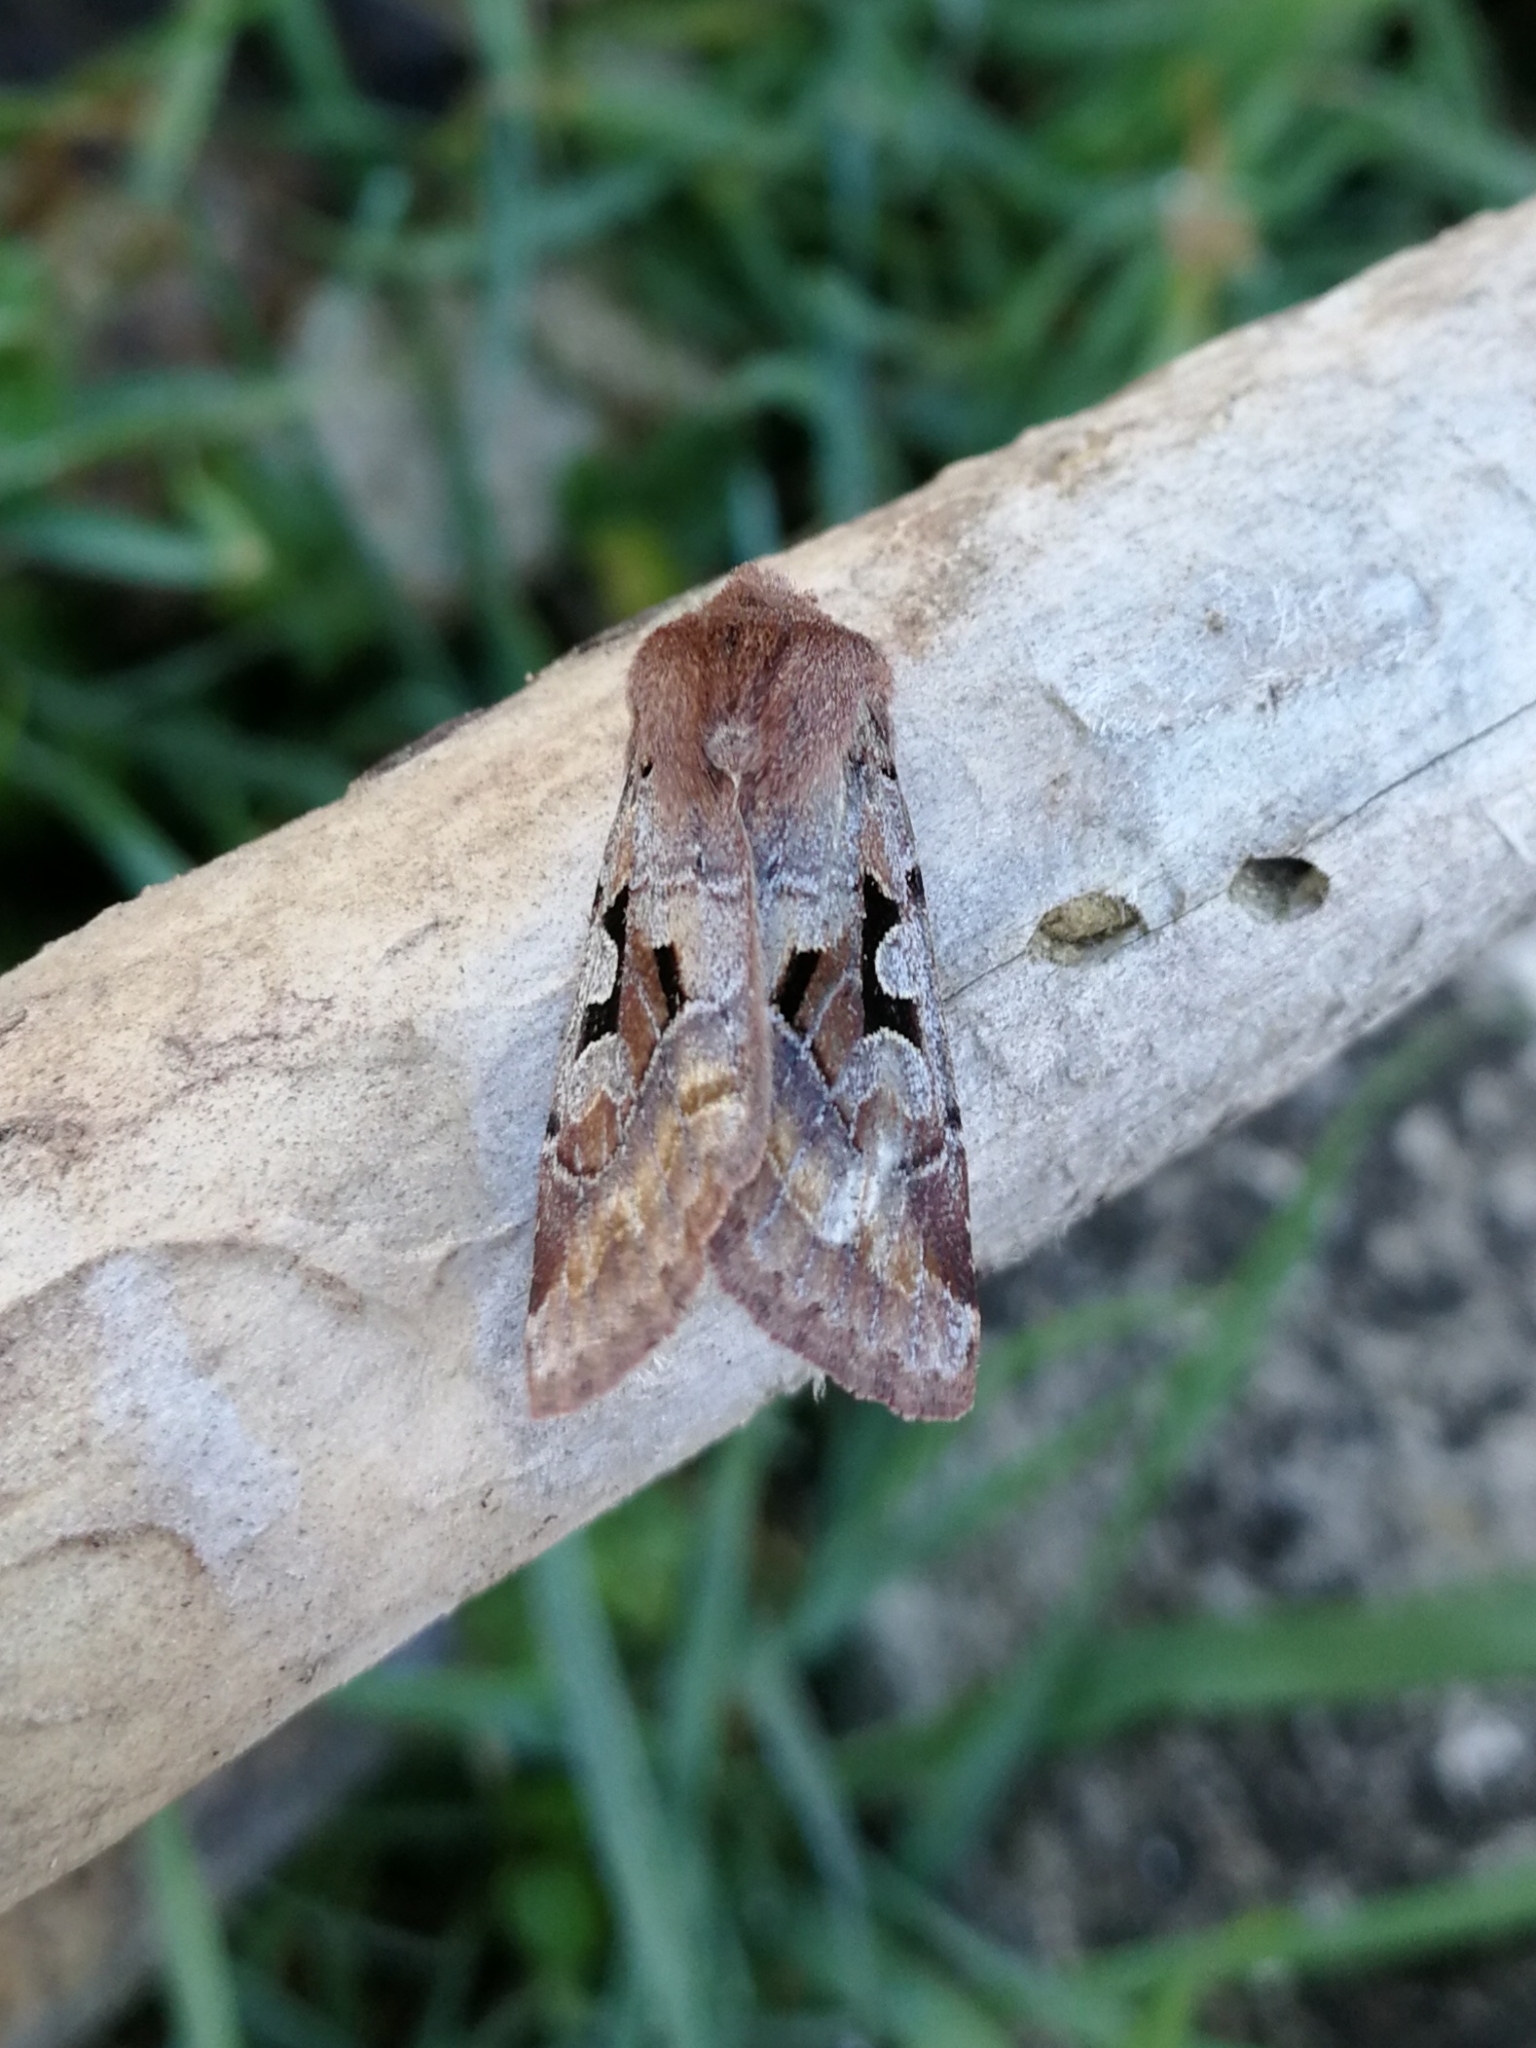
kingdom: Animalia
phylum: Arthropoda
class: Insecta
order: Lepidoptera
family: Noctuidae
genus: Orthosia
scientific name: Orthosia gothica
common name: Hebrew character
